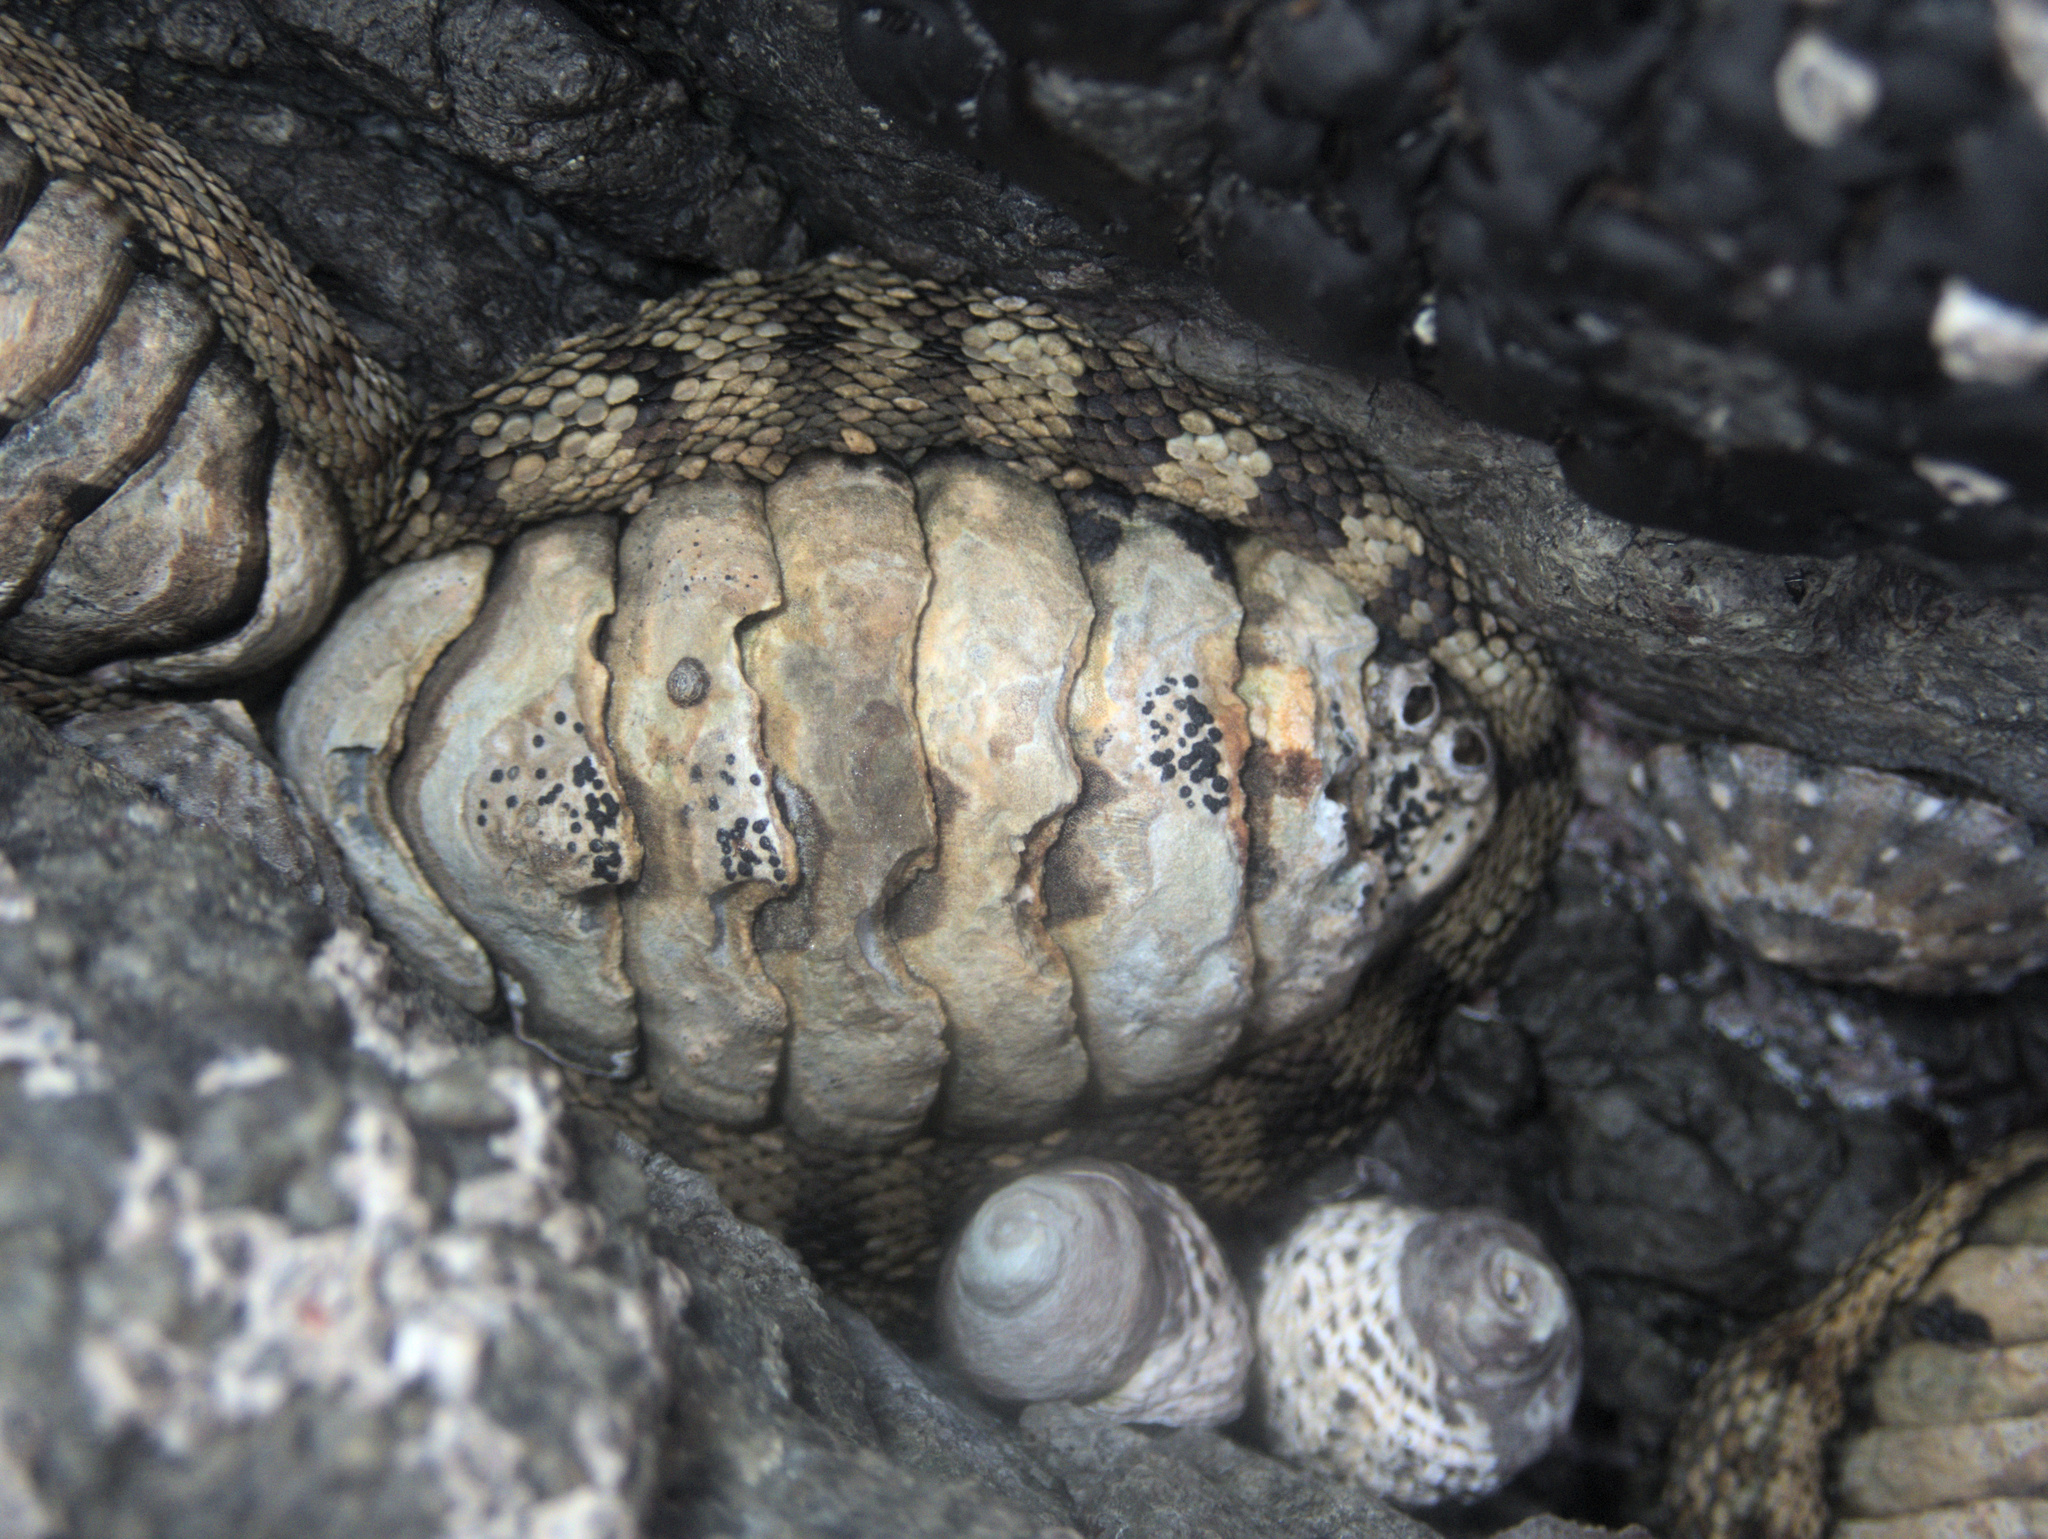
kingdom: Animalia
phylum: Mollusca
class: Polyplacophora
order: Chitonida
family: Chitonidae
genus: Sypharochiton
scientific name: Sypharochiton pelliserpentis
